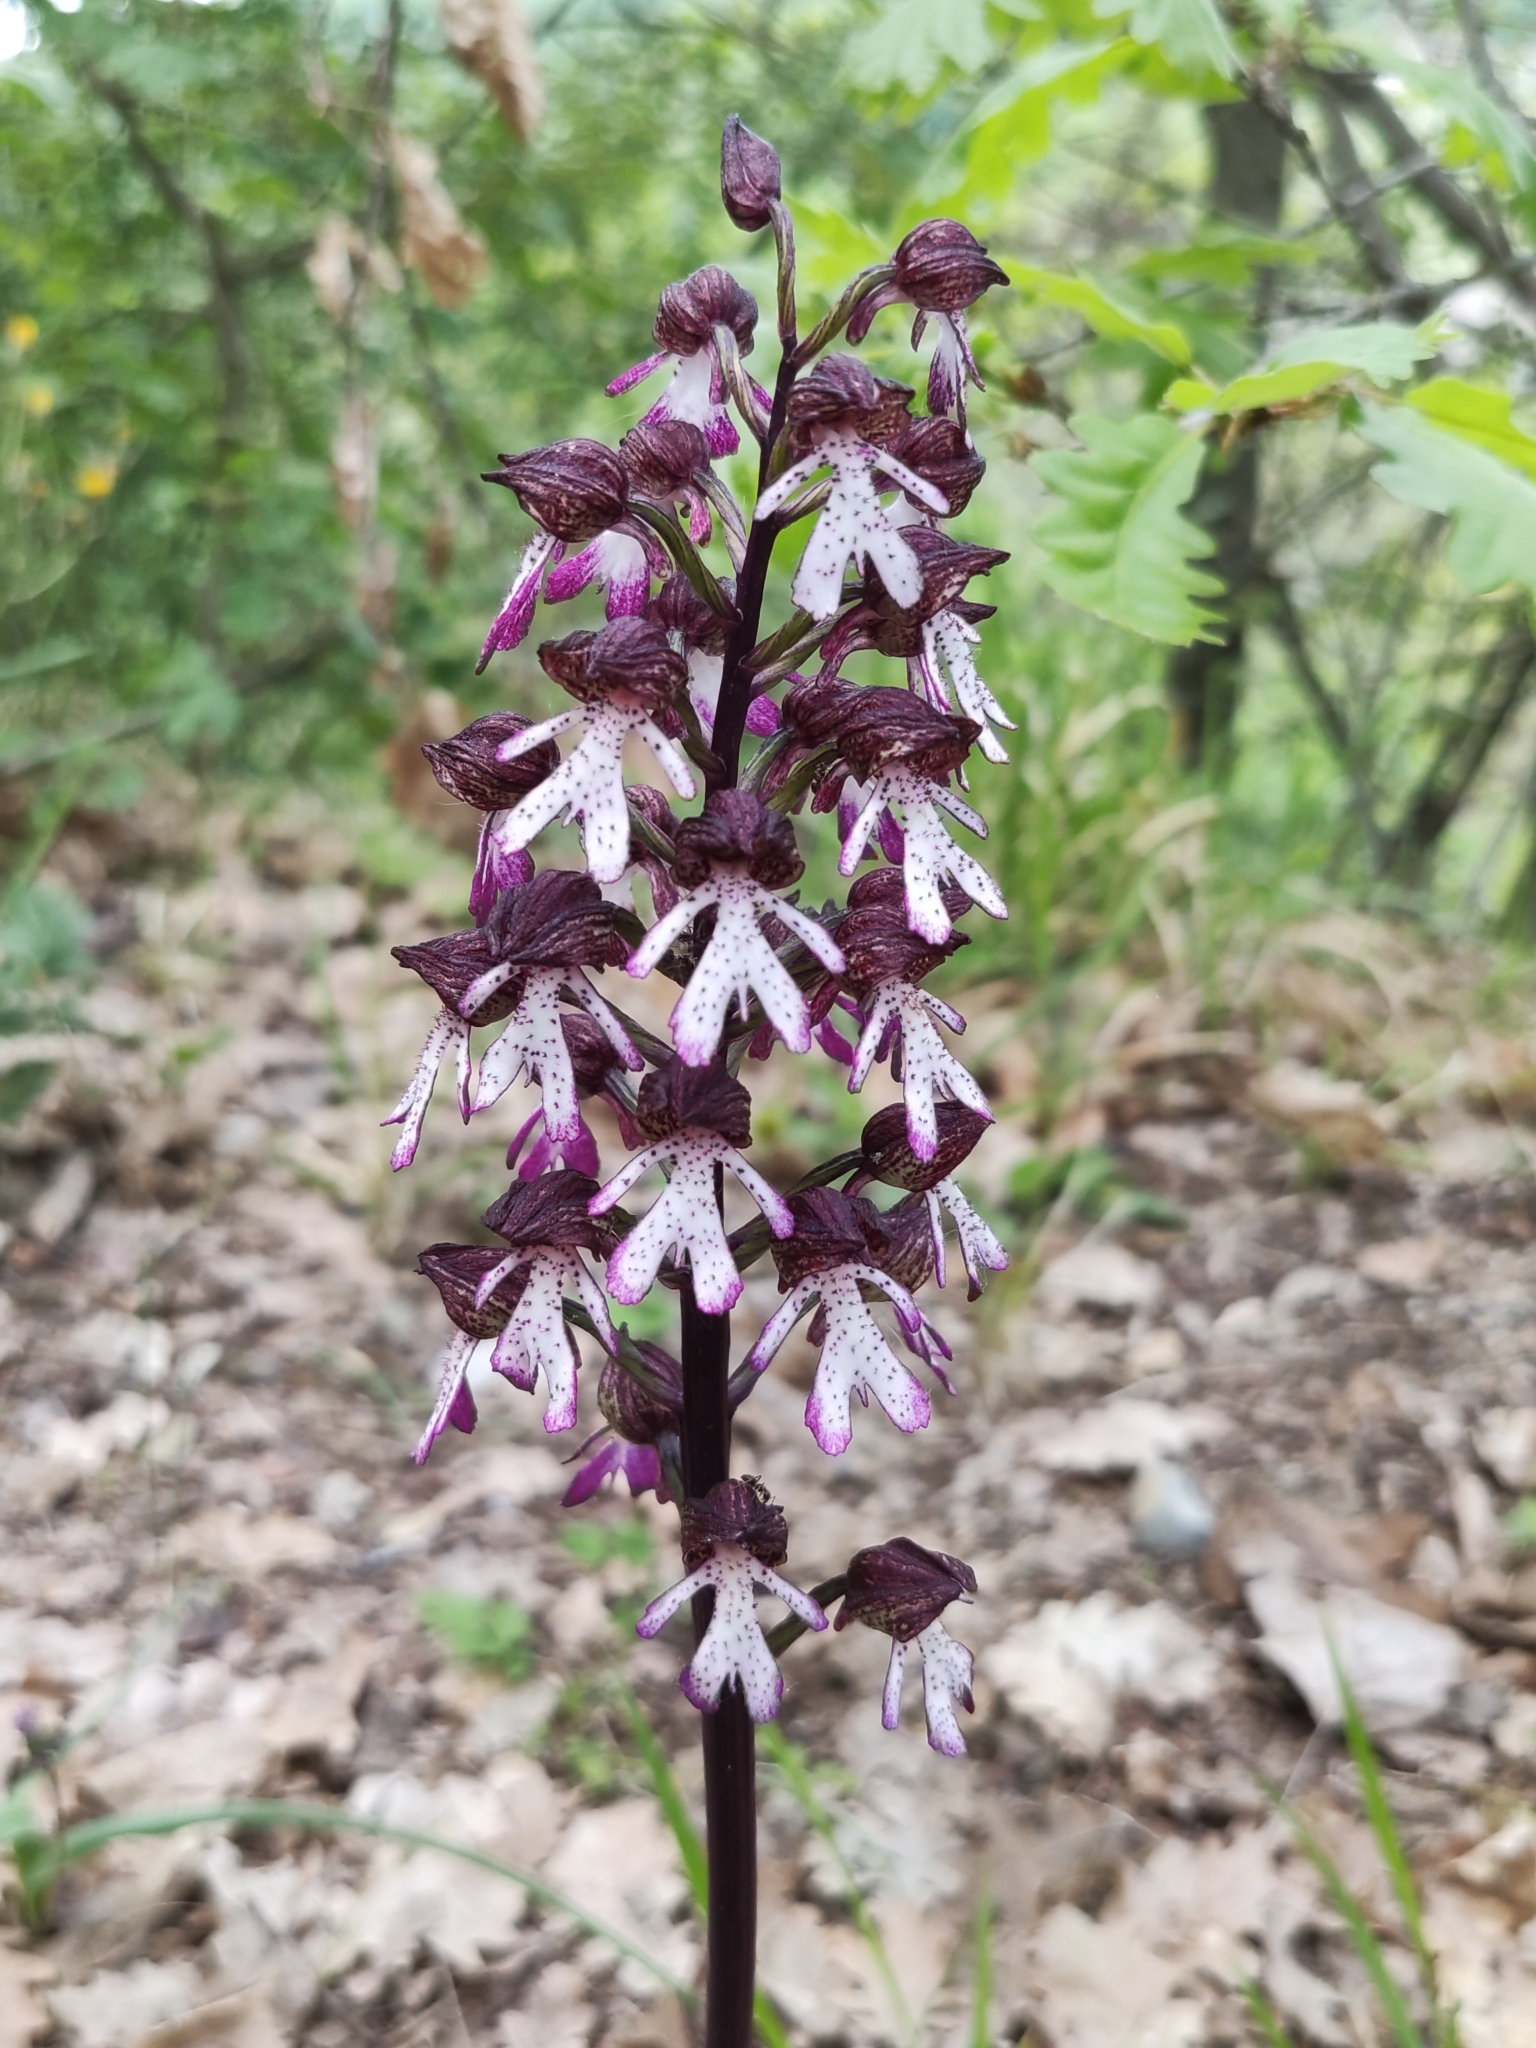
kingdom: Plantae
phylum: Tracheophyta
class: Liliopsida
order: Asparagales
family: Orchidaceae
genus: Orchis
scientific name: Orchis purpurea
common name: Lady orchid
